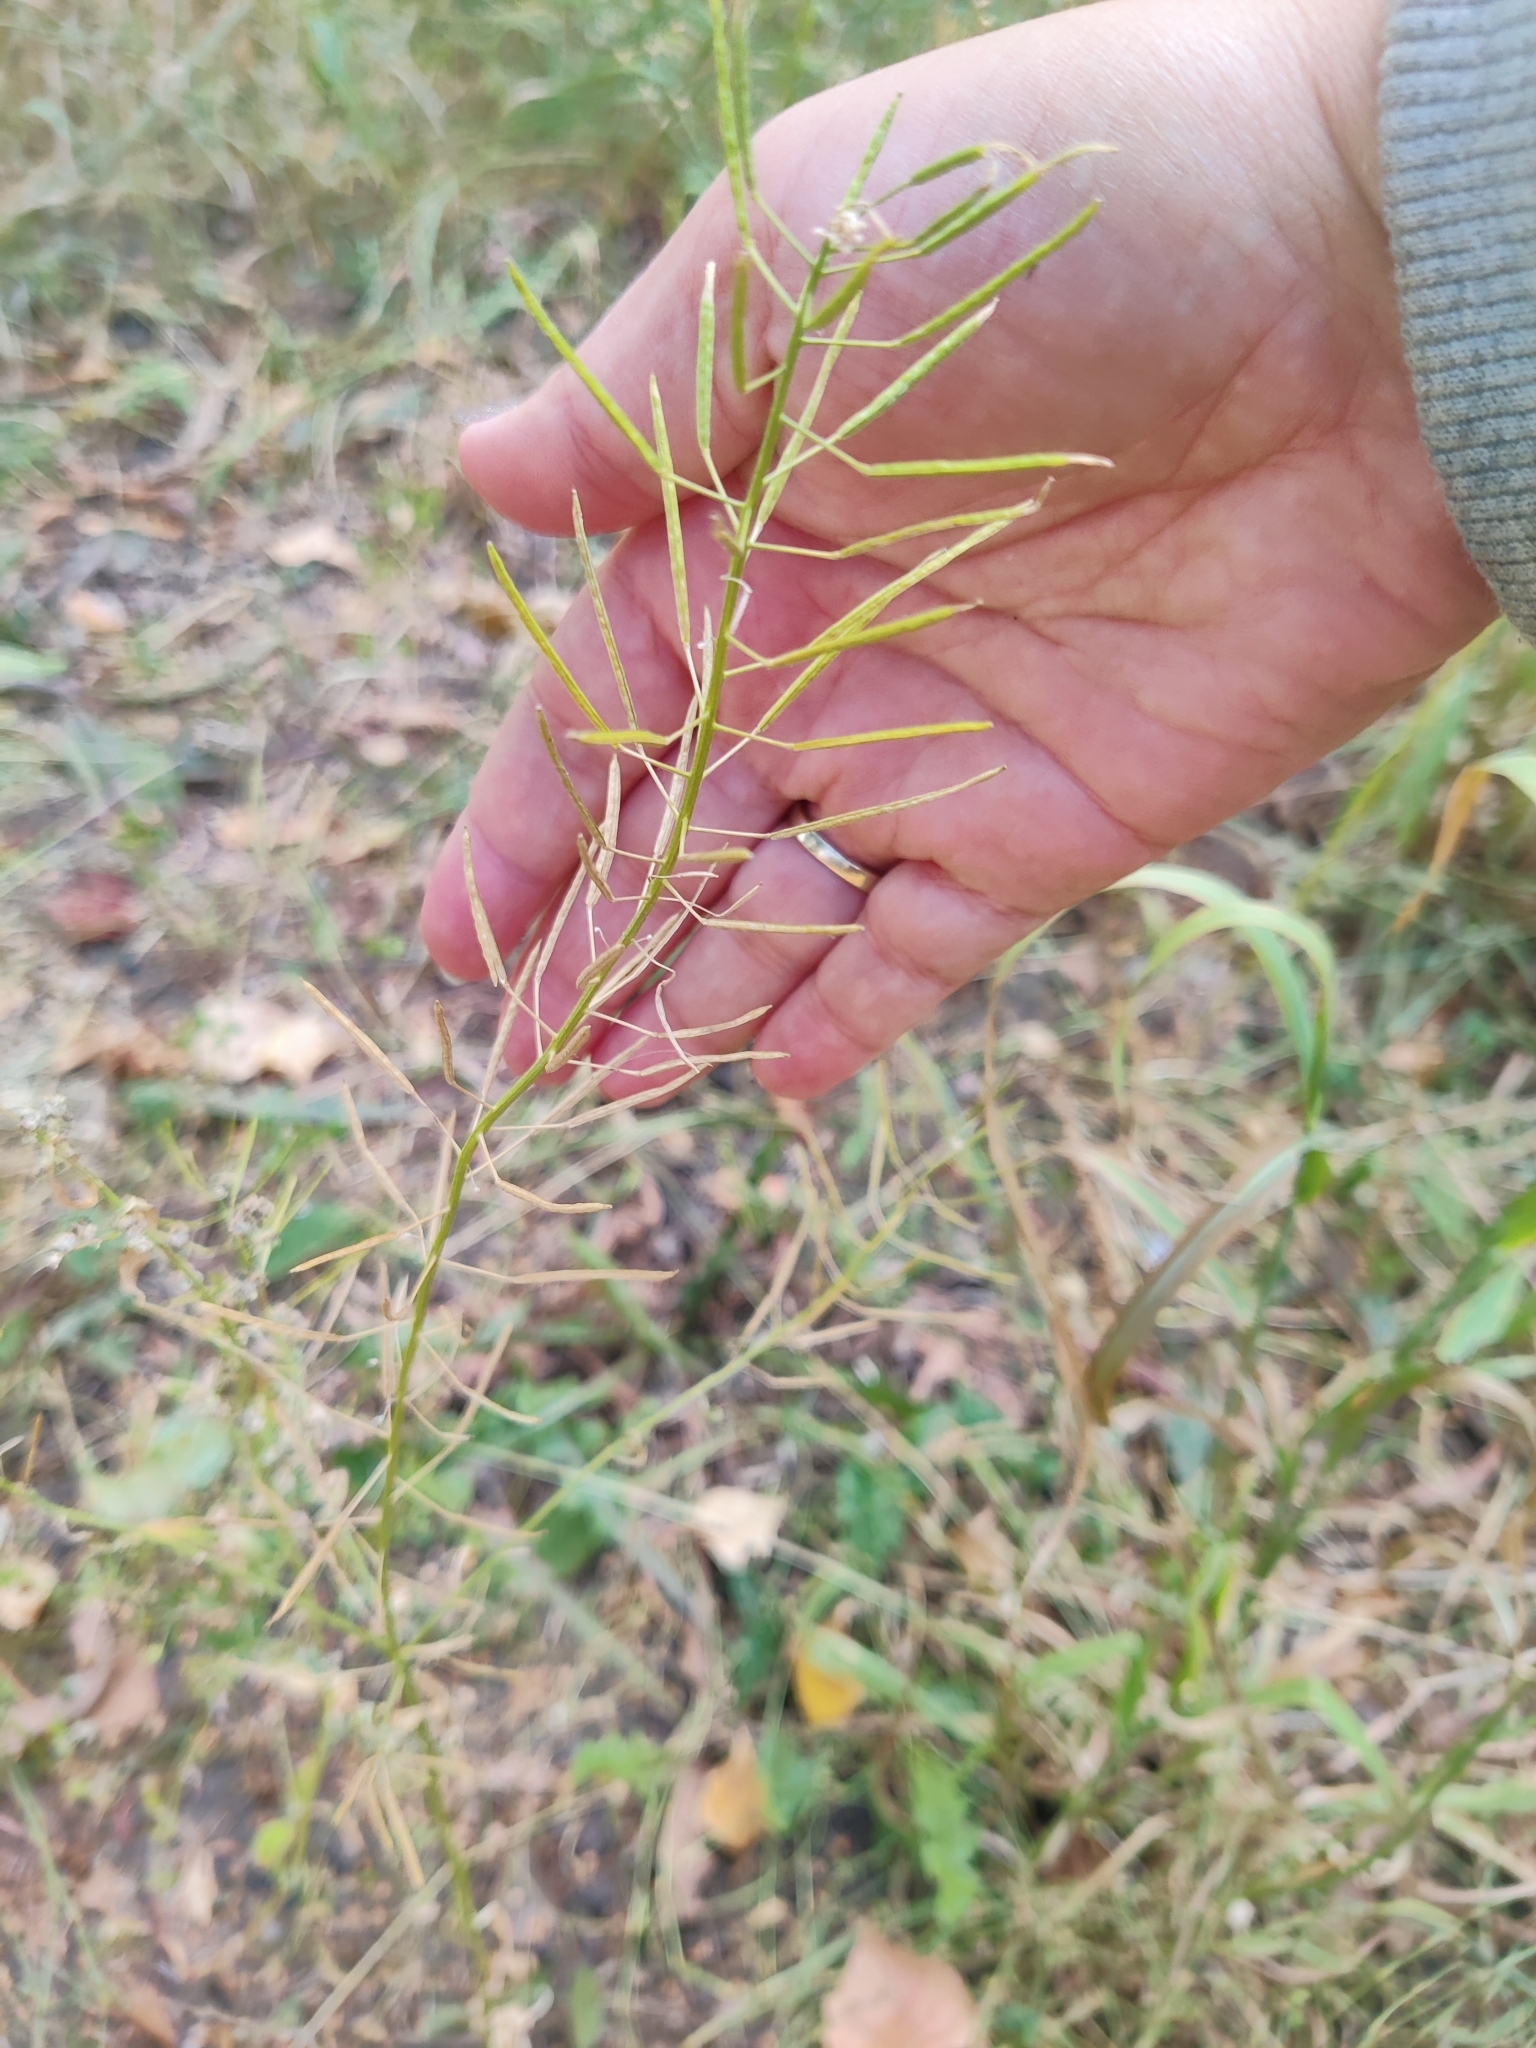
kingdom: Plantae
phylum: Tracheophyta
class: Magnoliopsida
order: Brassicales
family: Brassicaceae
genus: Erysimum
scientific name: Erysimum cheiranthoides
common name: Treacle mustard
